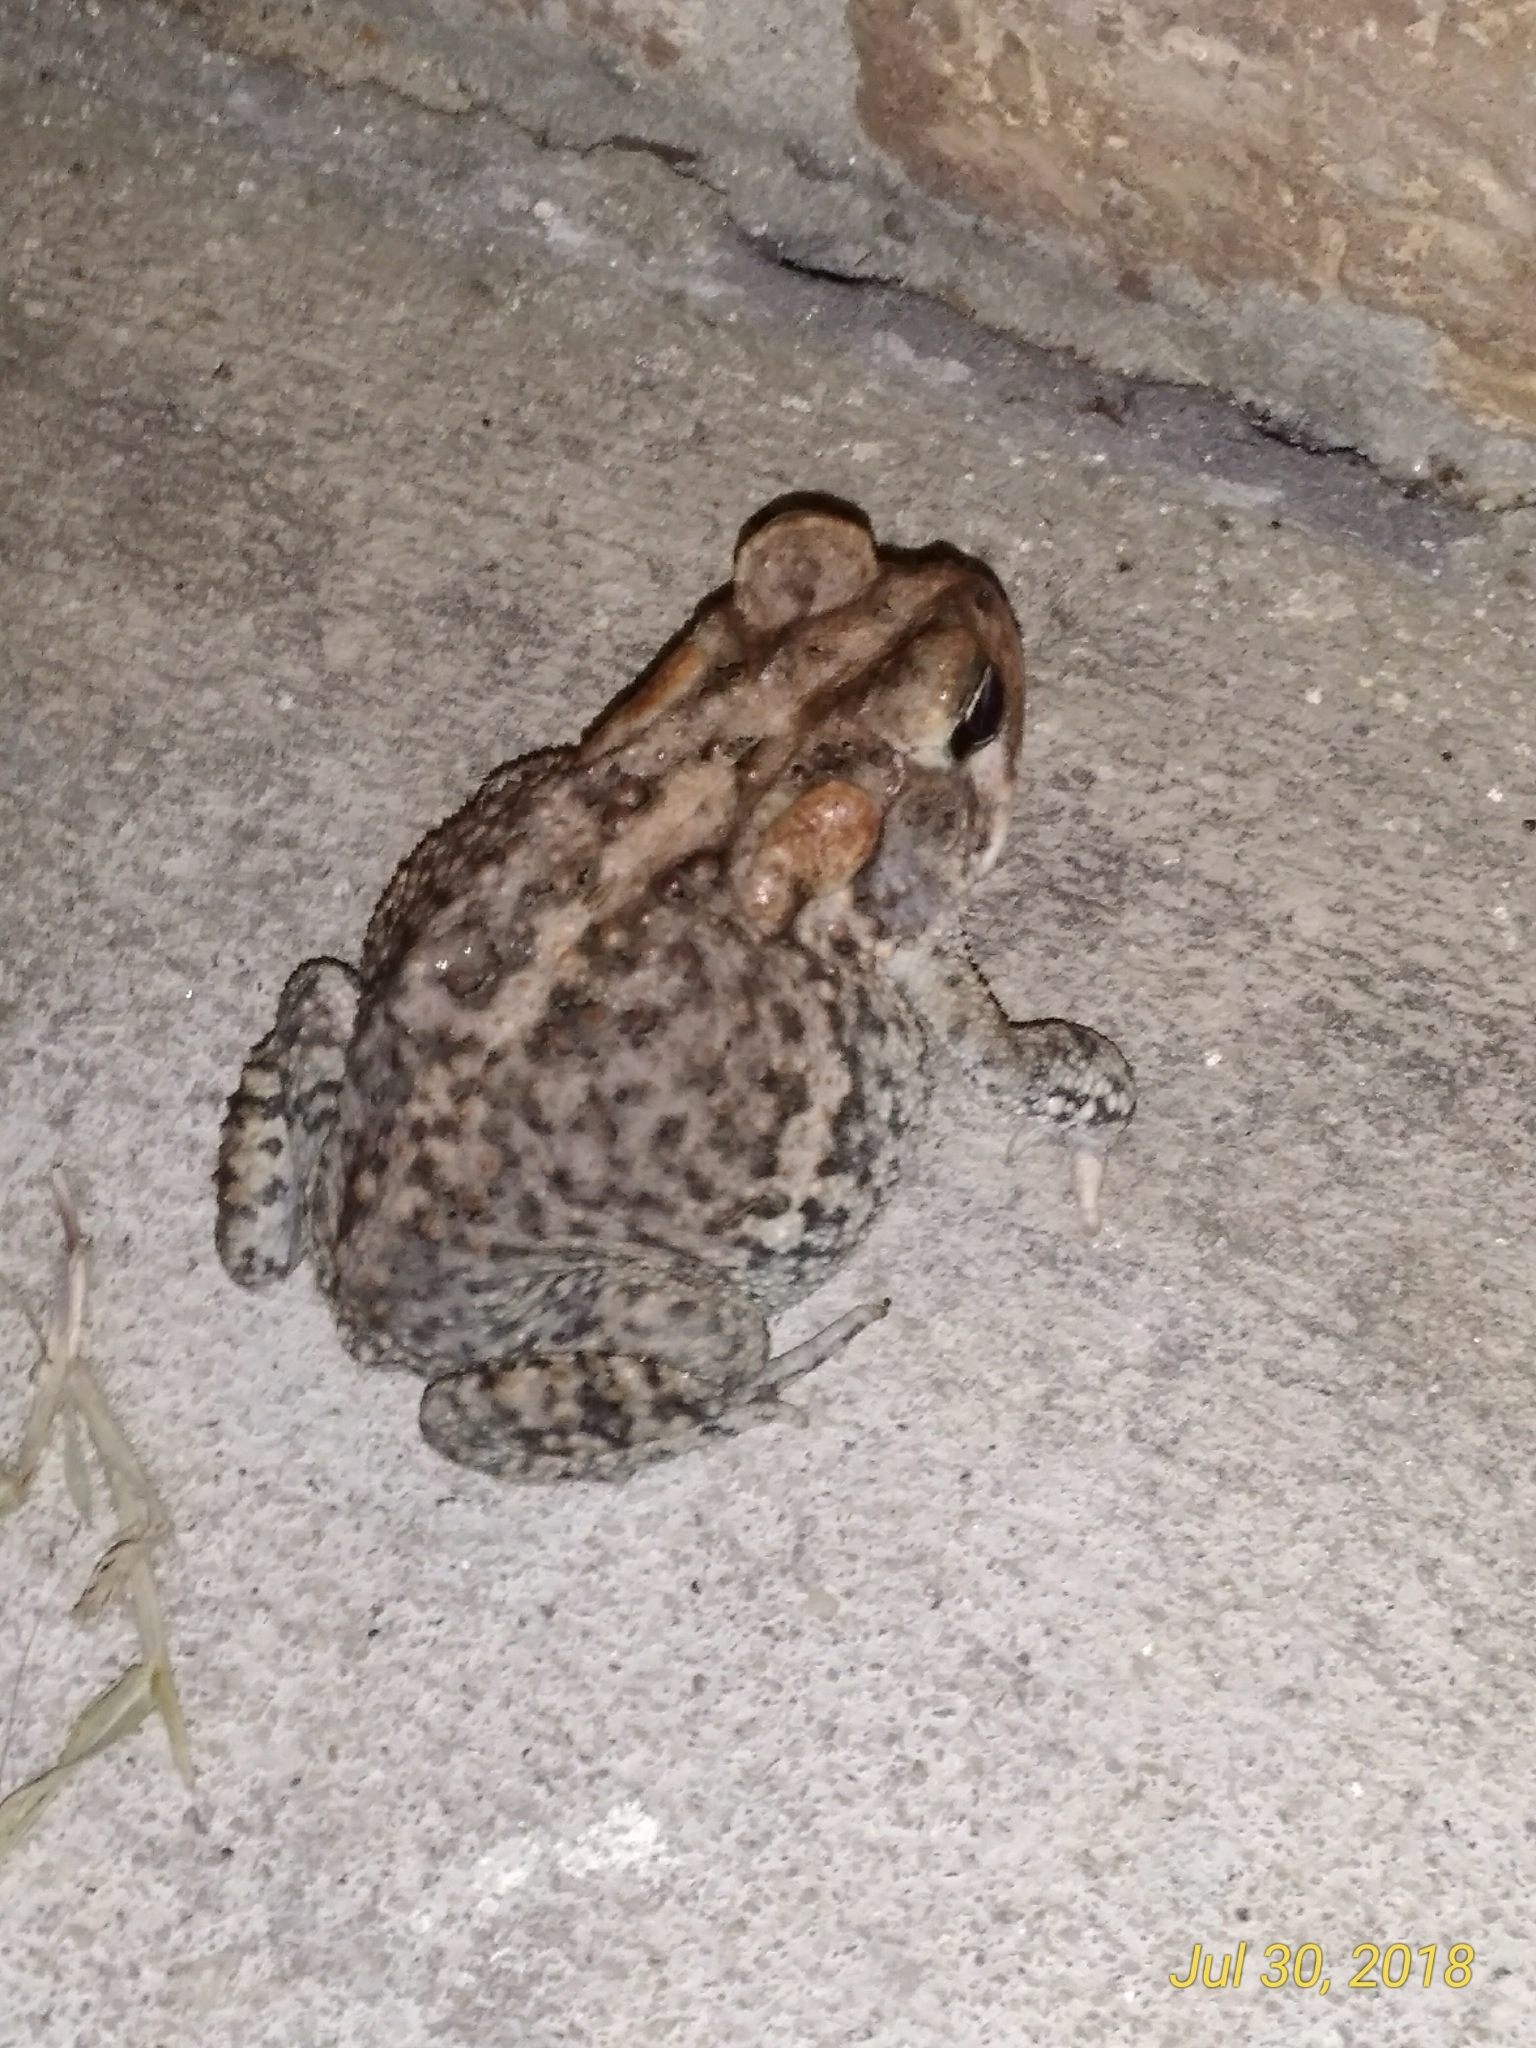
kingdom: Animalia
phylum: Chordata
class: Amphibia
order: Anura
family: Bufonidae
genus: Anaxyrus
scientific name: Anaxyrus terrestris
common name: Southern toad
